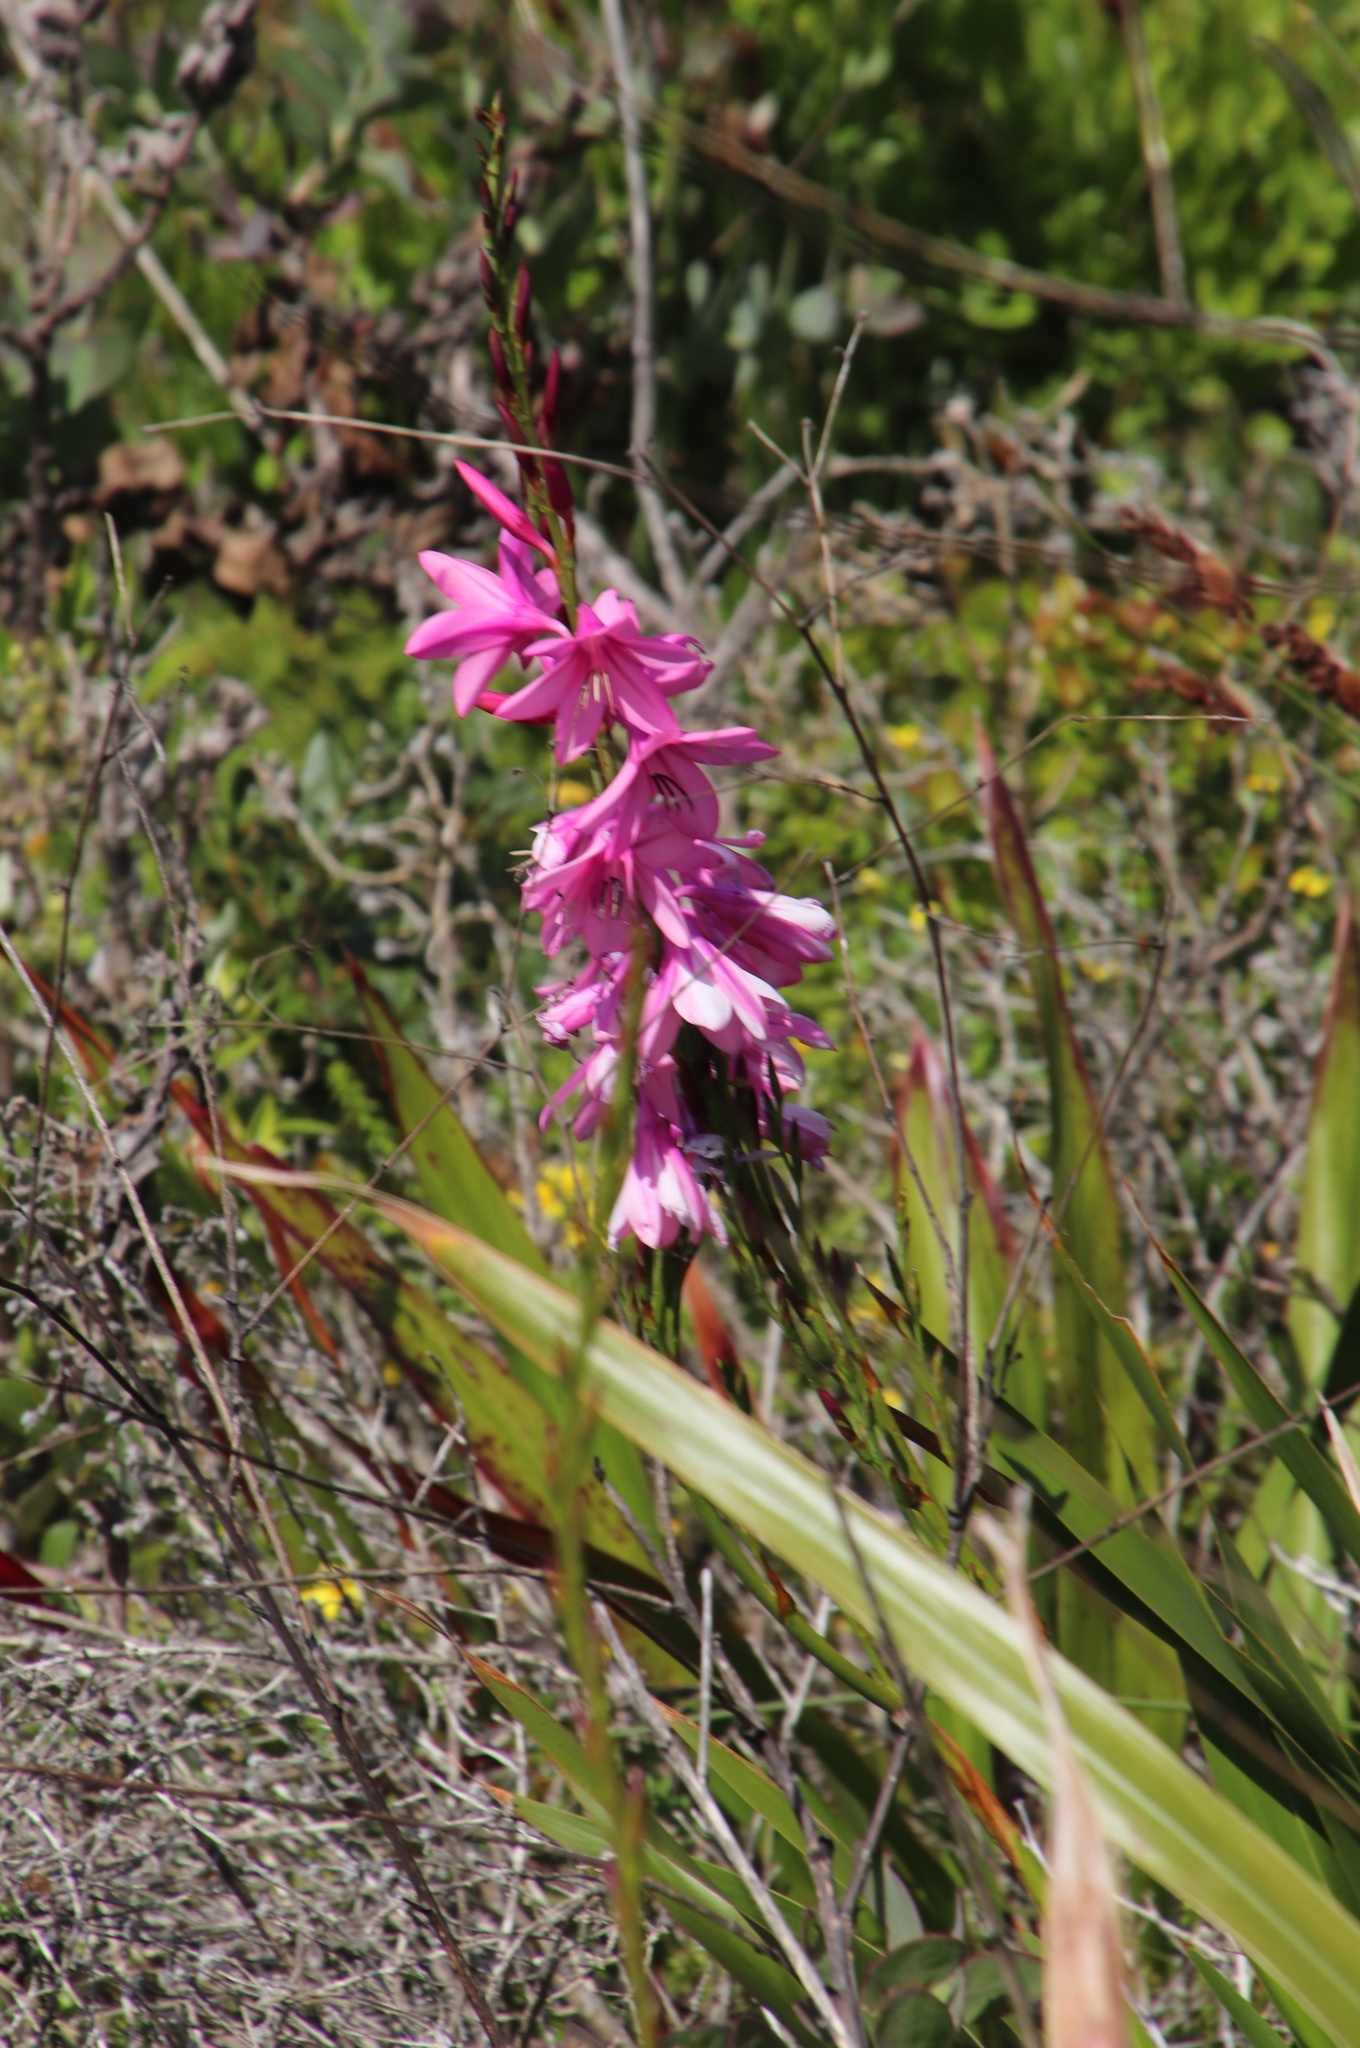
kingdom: Plantae
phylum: Tracheophyta
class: Liliopsida
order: Asparagales
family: Iridaceae
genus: Watsonia
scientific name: Watsonia borbonica
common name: Bugle-lily
